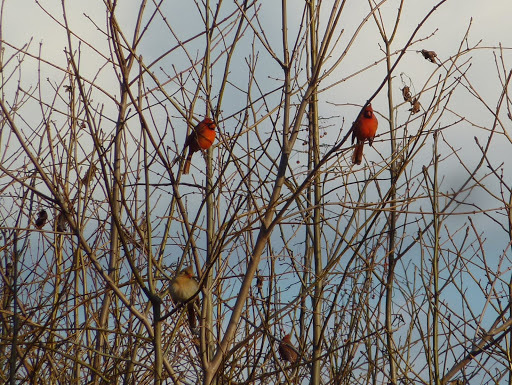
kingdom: Animalia
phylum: Chordata
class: Aves
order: Passeriformes
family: Cardinalidae
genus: Cardinalis
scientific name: Cardinalis cardinalis
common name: Northern cardinal
